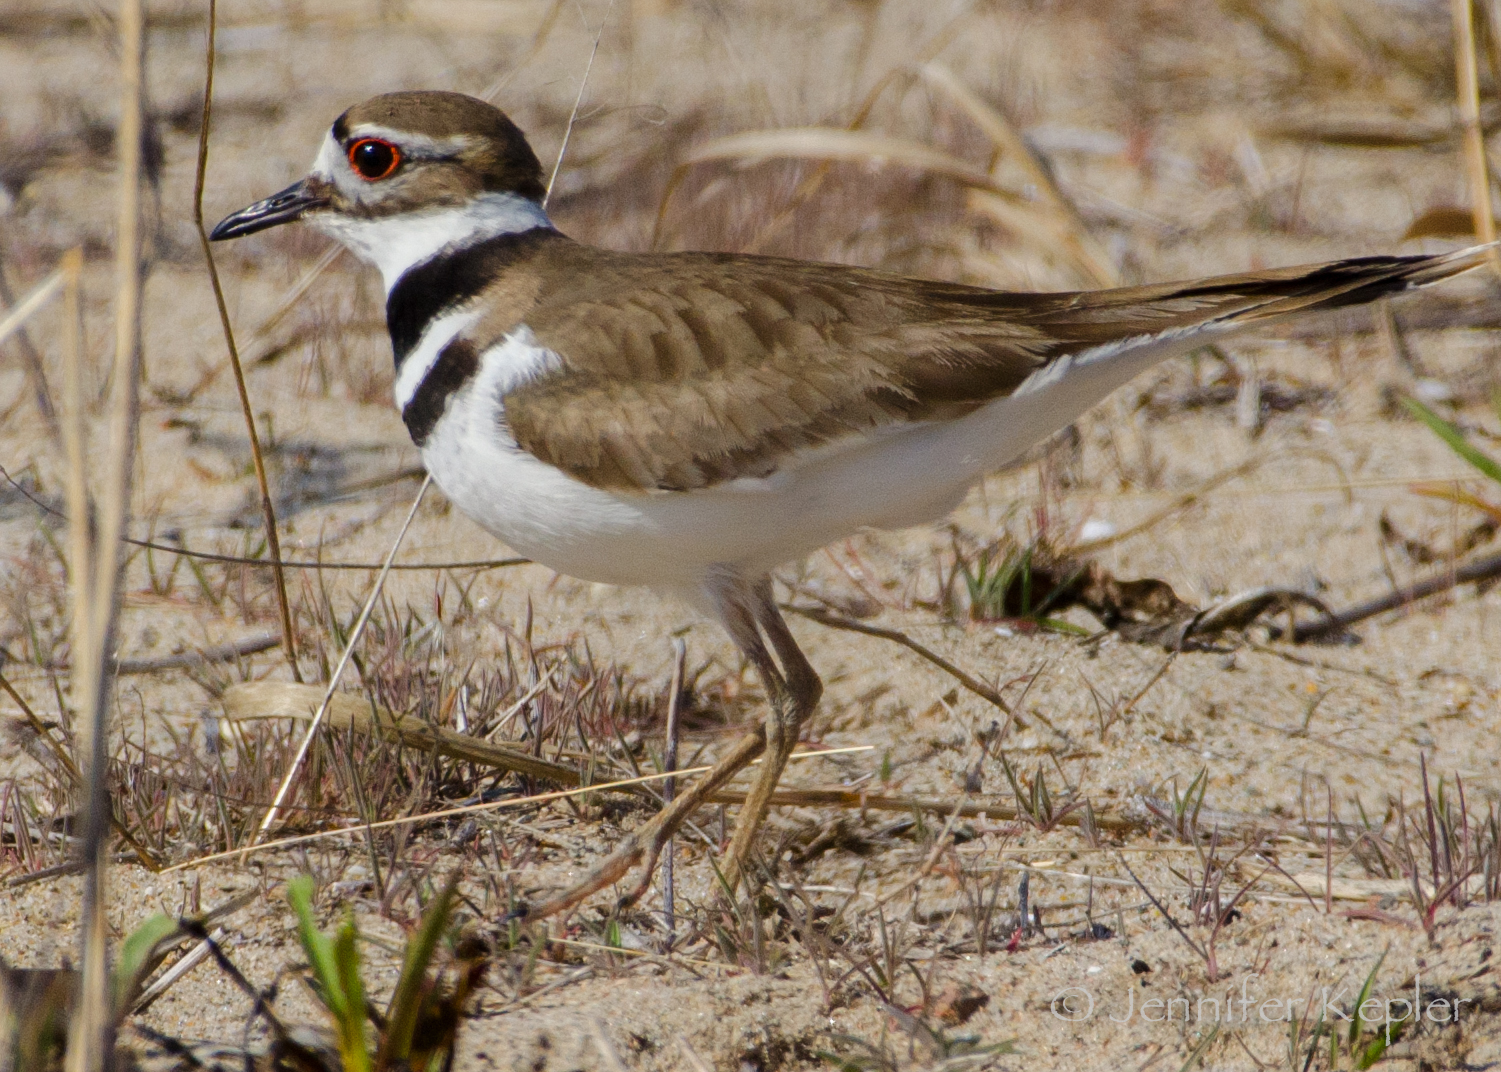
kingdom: Animalia
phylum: Chordata
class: Aves
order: Charadriiformes
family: Charadriidae
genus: Charadrius
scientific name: Charadrius vociferus
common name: Killdeer
